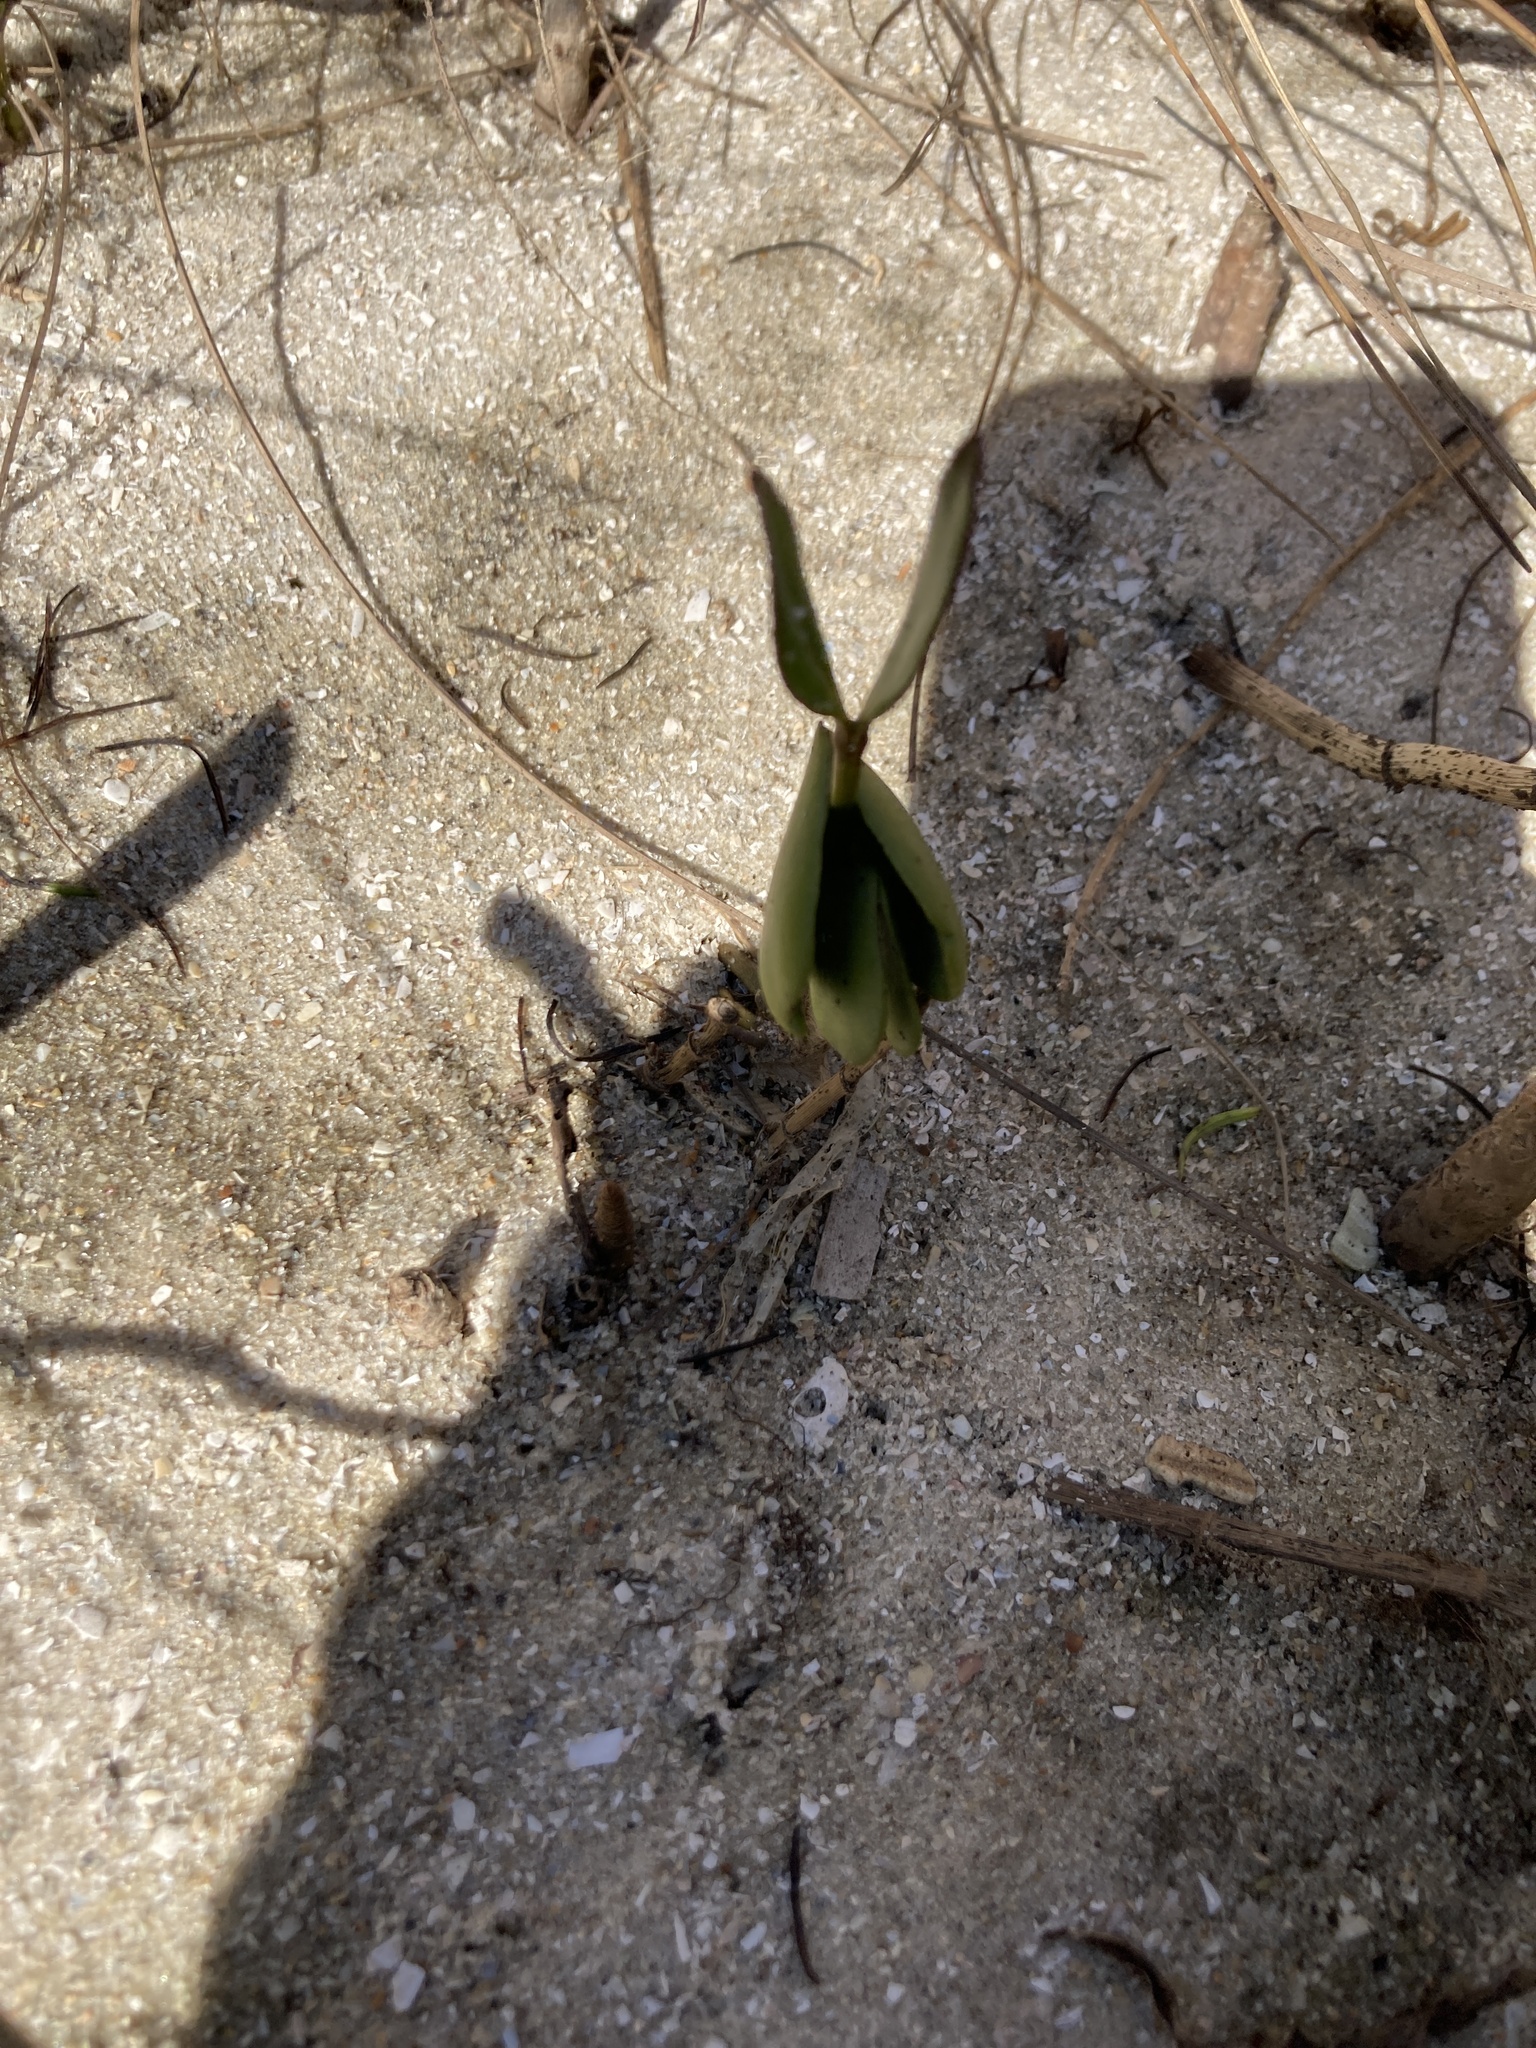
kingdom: Plantae
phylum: Tracheophyta
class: Magnoliopsida
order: Lamiales
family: Acanthaceae
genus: Avicennia
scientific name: Avicennia germinans
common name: Black mangrove
